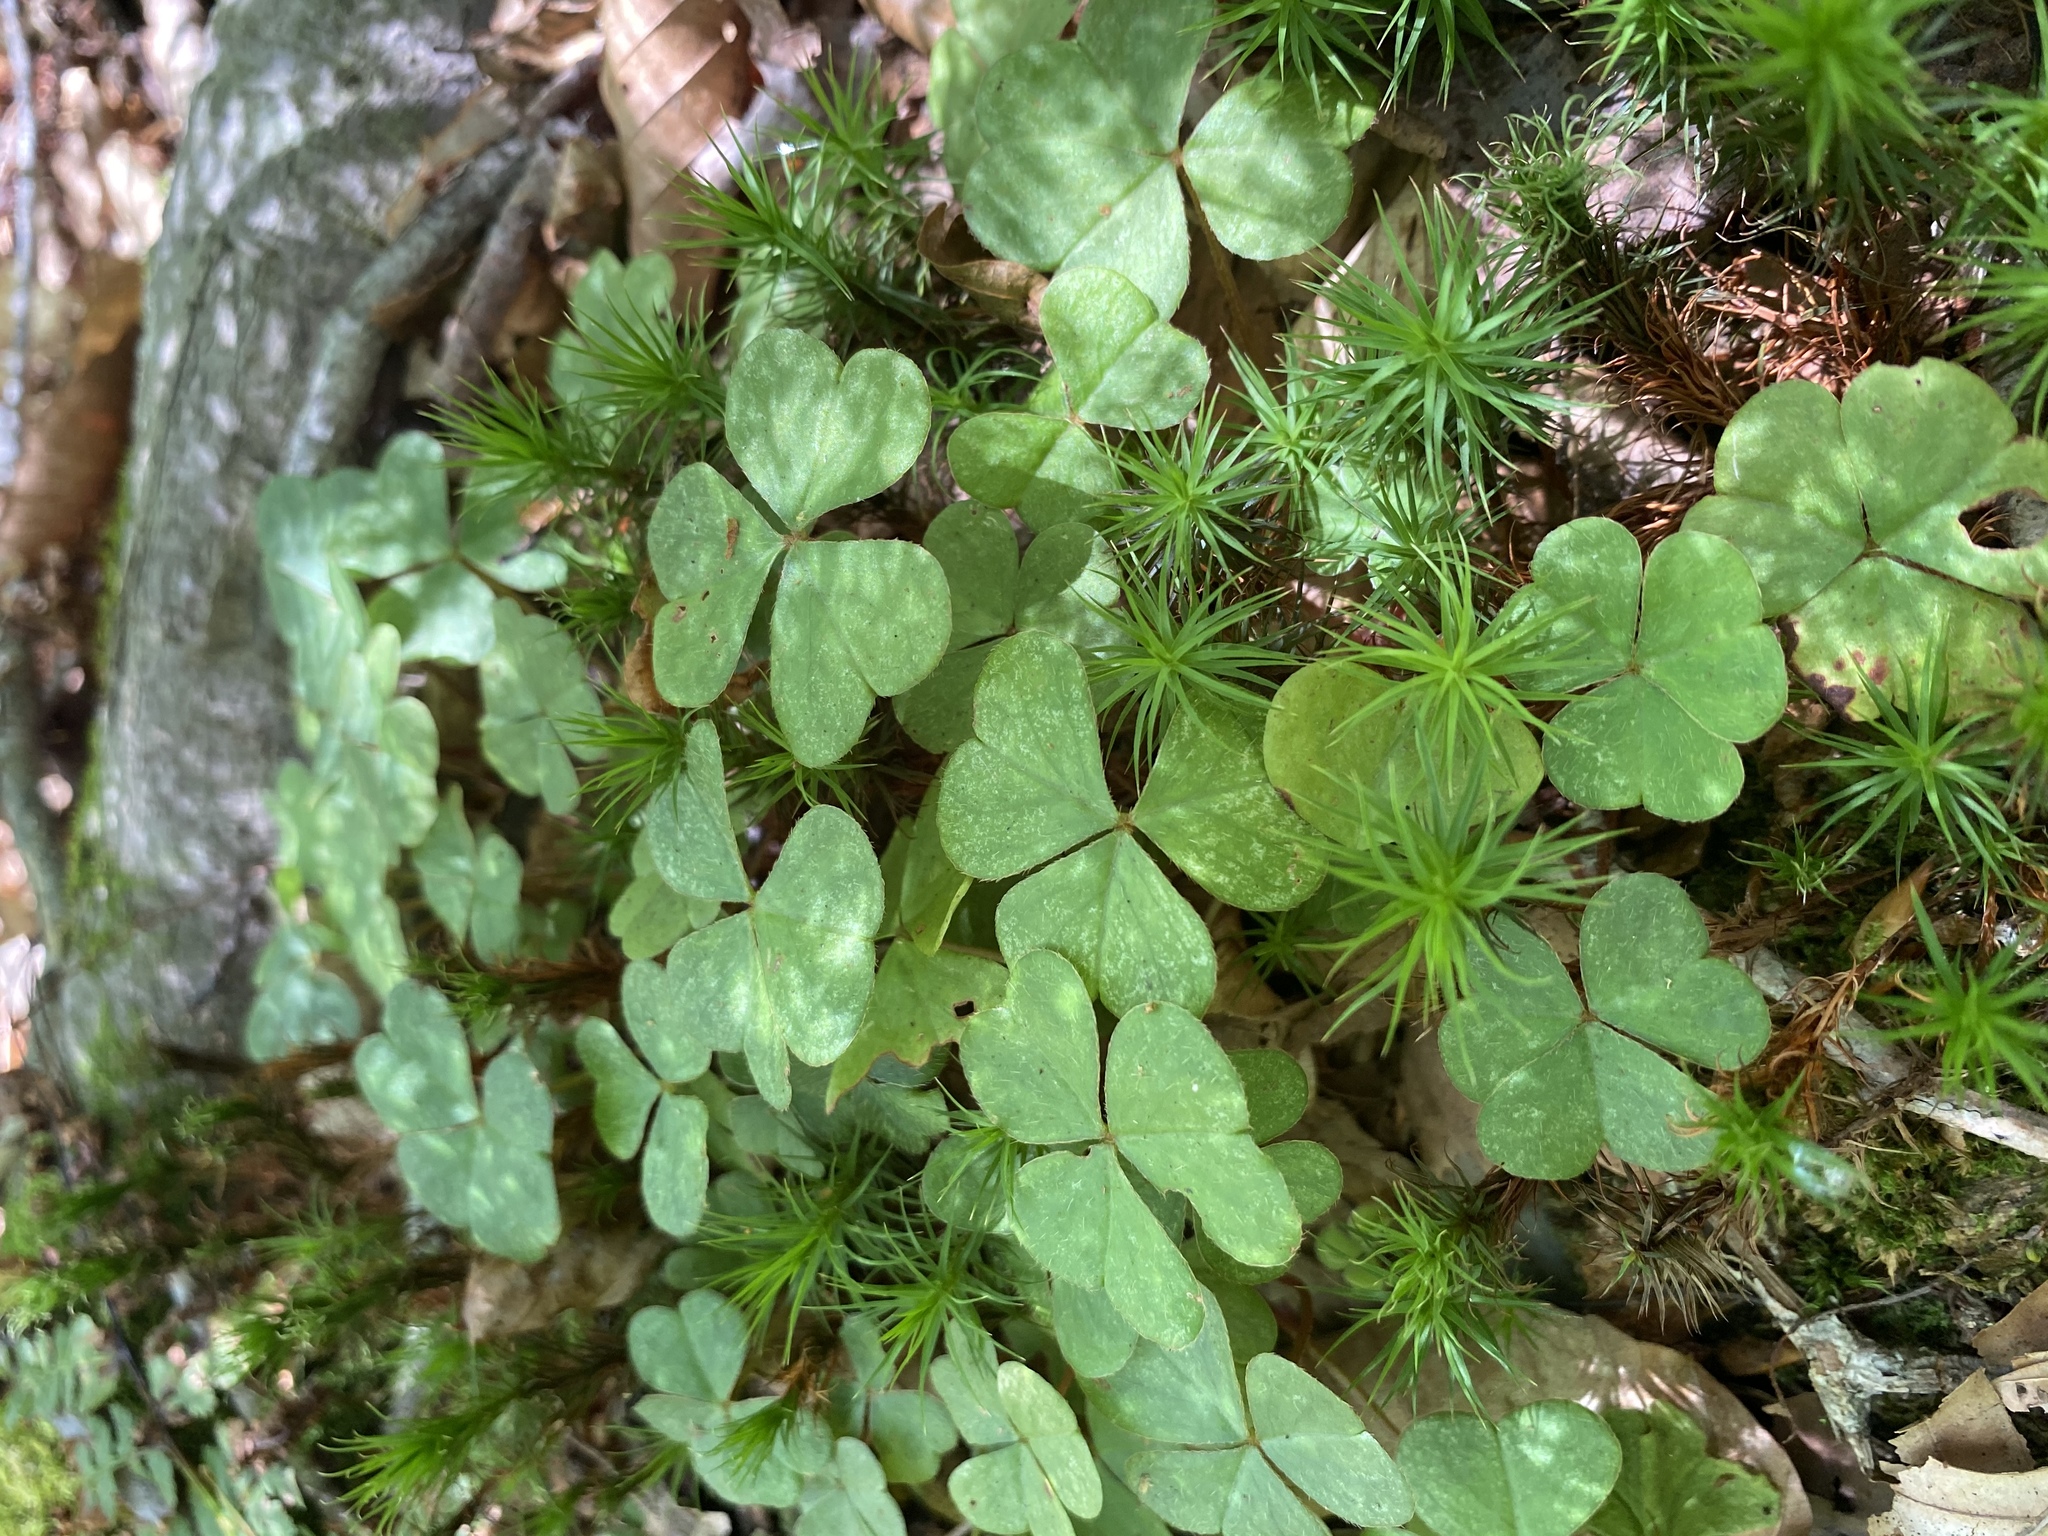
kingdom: Plantae
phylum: Tracheophyta
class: Magnoliopsida
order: Oxalidales
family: Oxalidaceae
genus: Oxalis
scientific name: Oxalis montana
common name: American wood-sorrel
